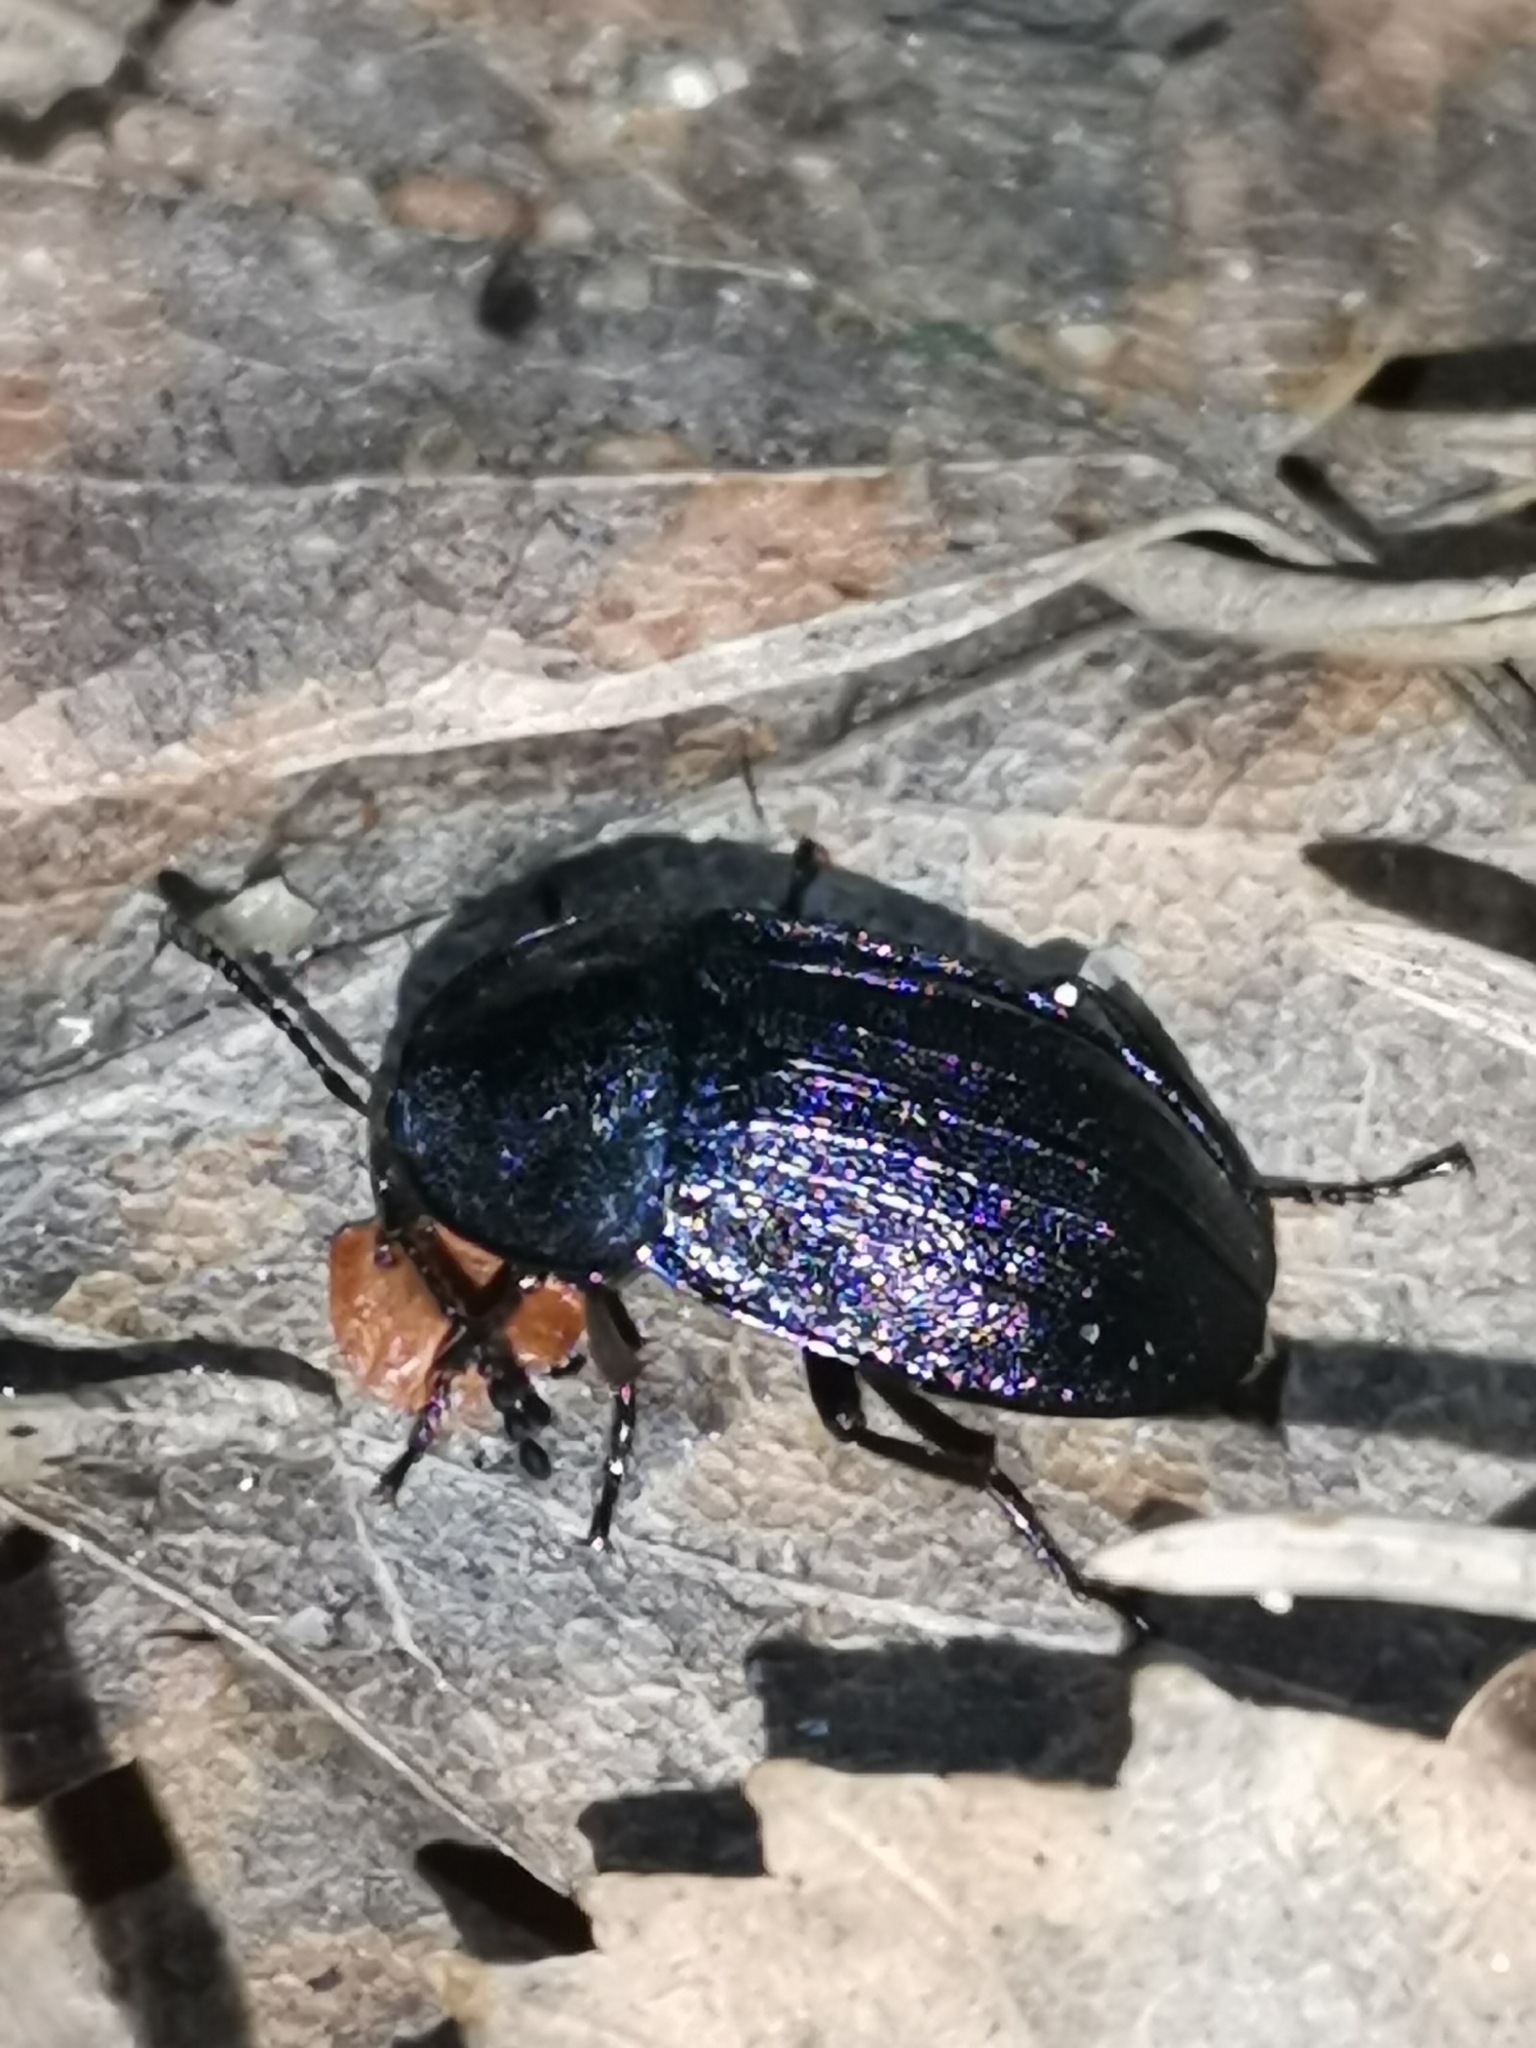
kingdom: Animalia
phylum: Arthropoda
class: Insecta
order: Coleoptera
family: Staphylinidae
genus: Silpha
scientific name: Silpha atrata
